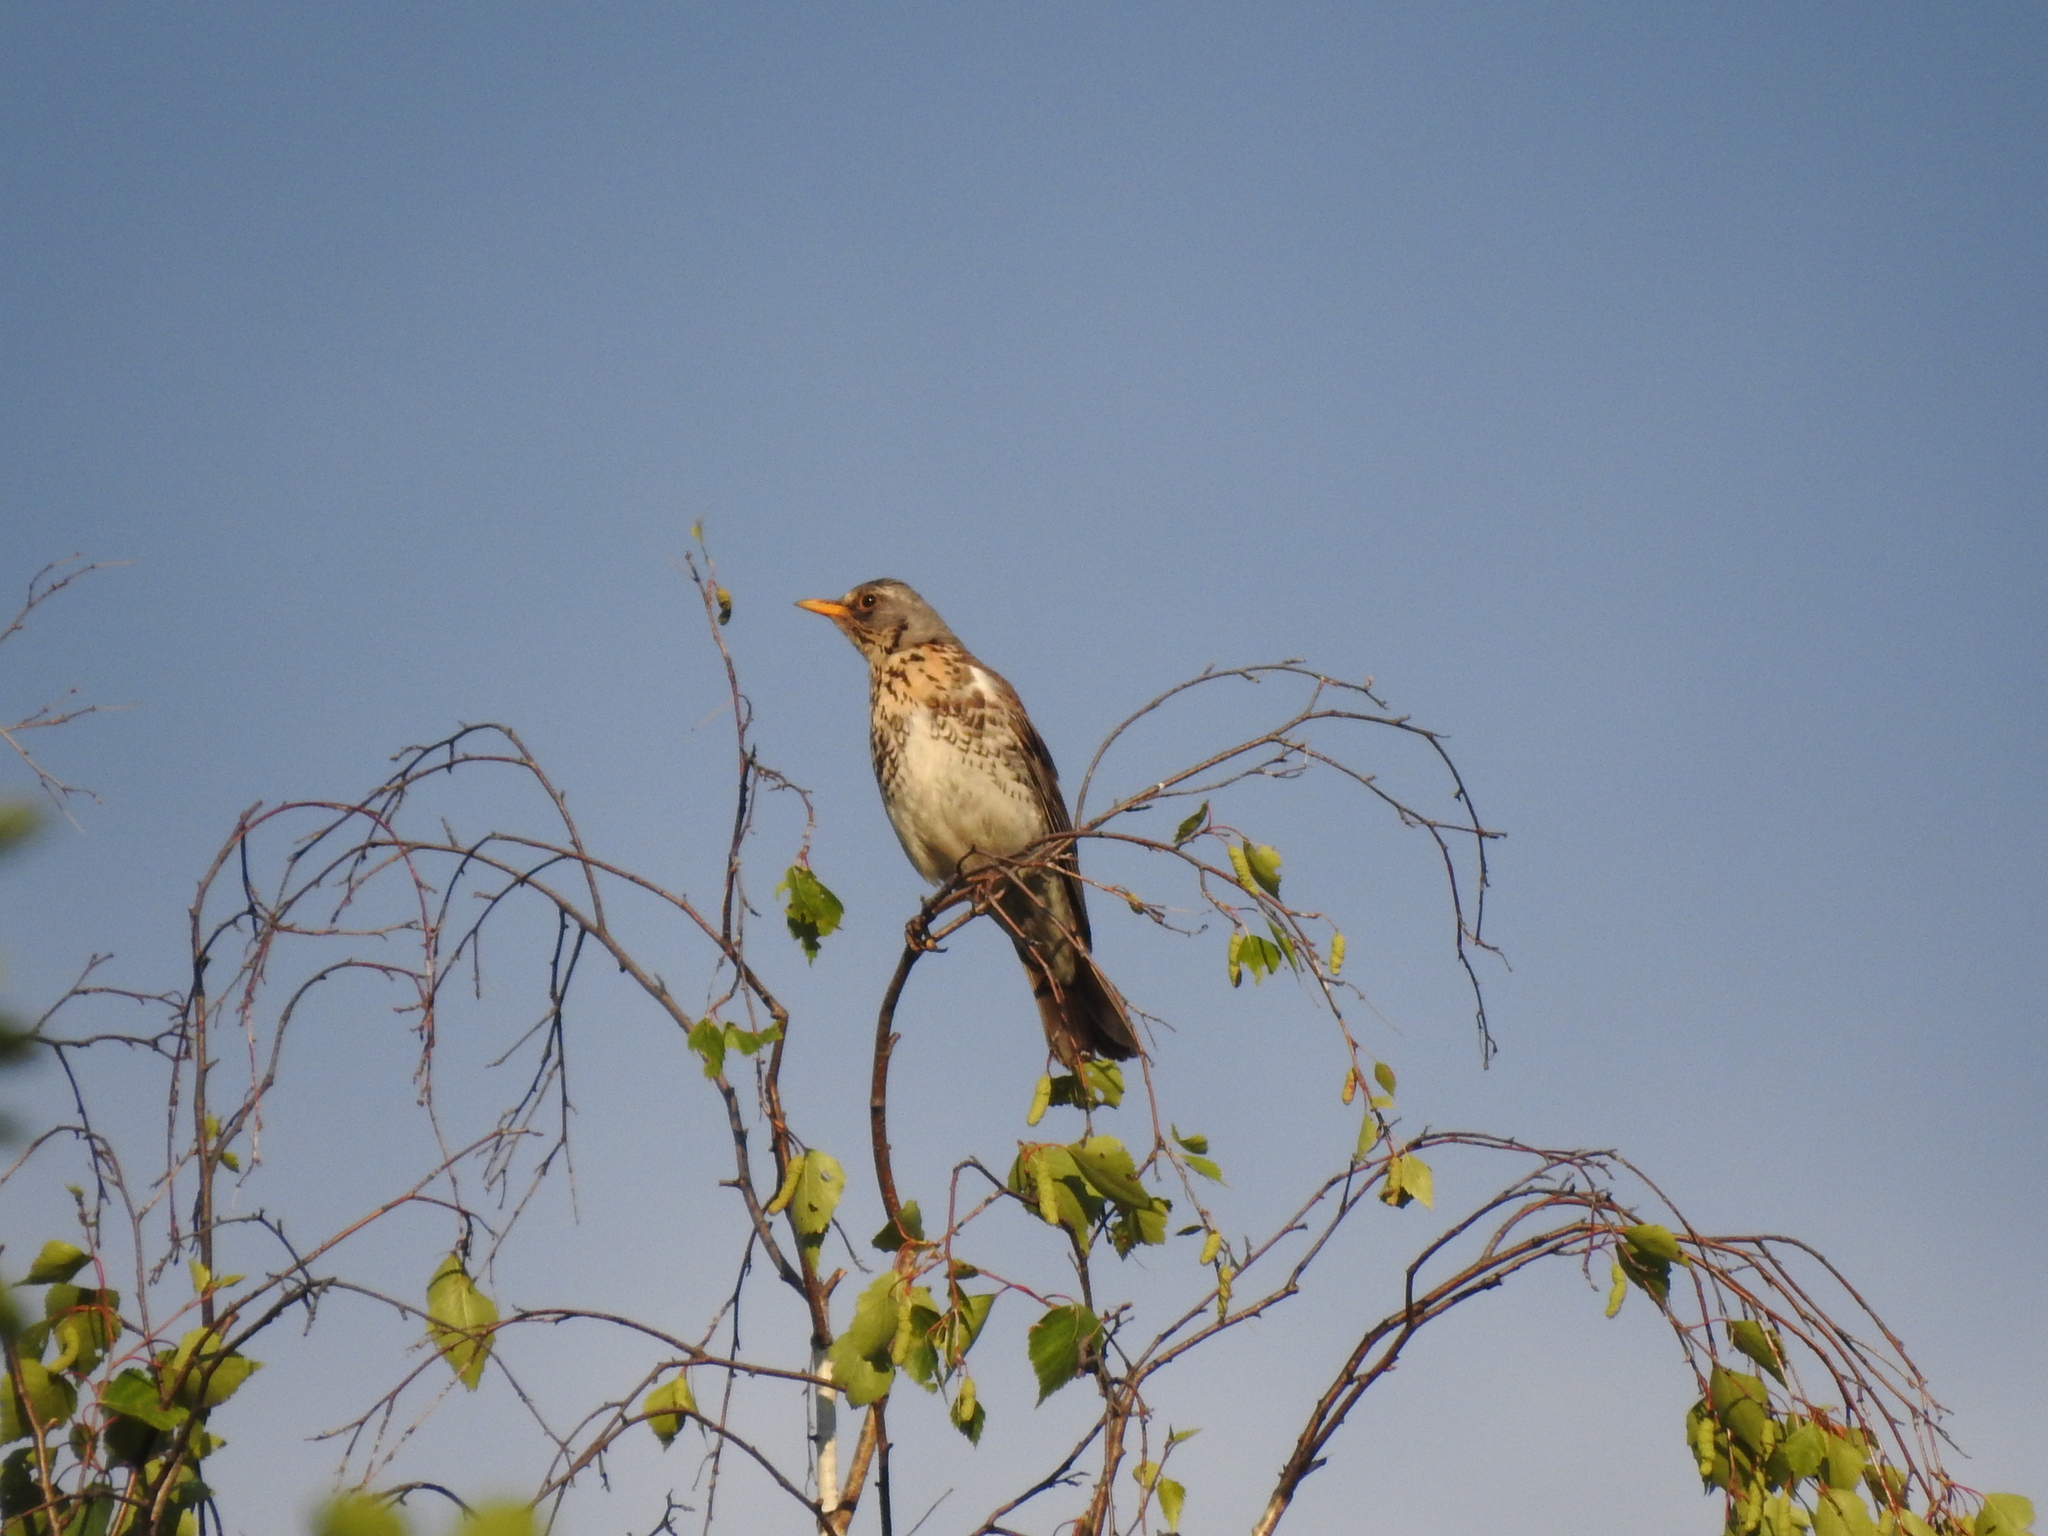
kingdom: Animalia
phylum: Chordata
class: Aves
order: Passeriformes
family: Turdidae
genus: Turdus
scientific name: Turdus pilaris
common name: Fieldfare
